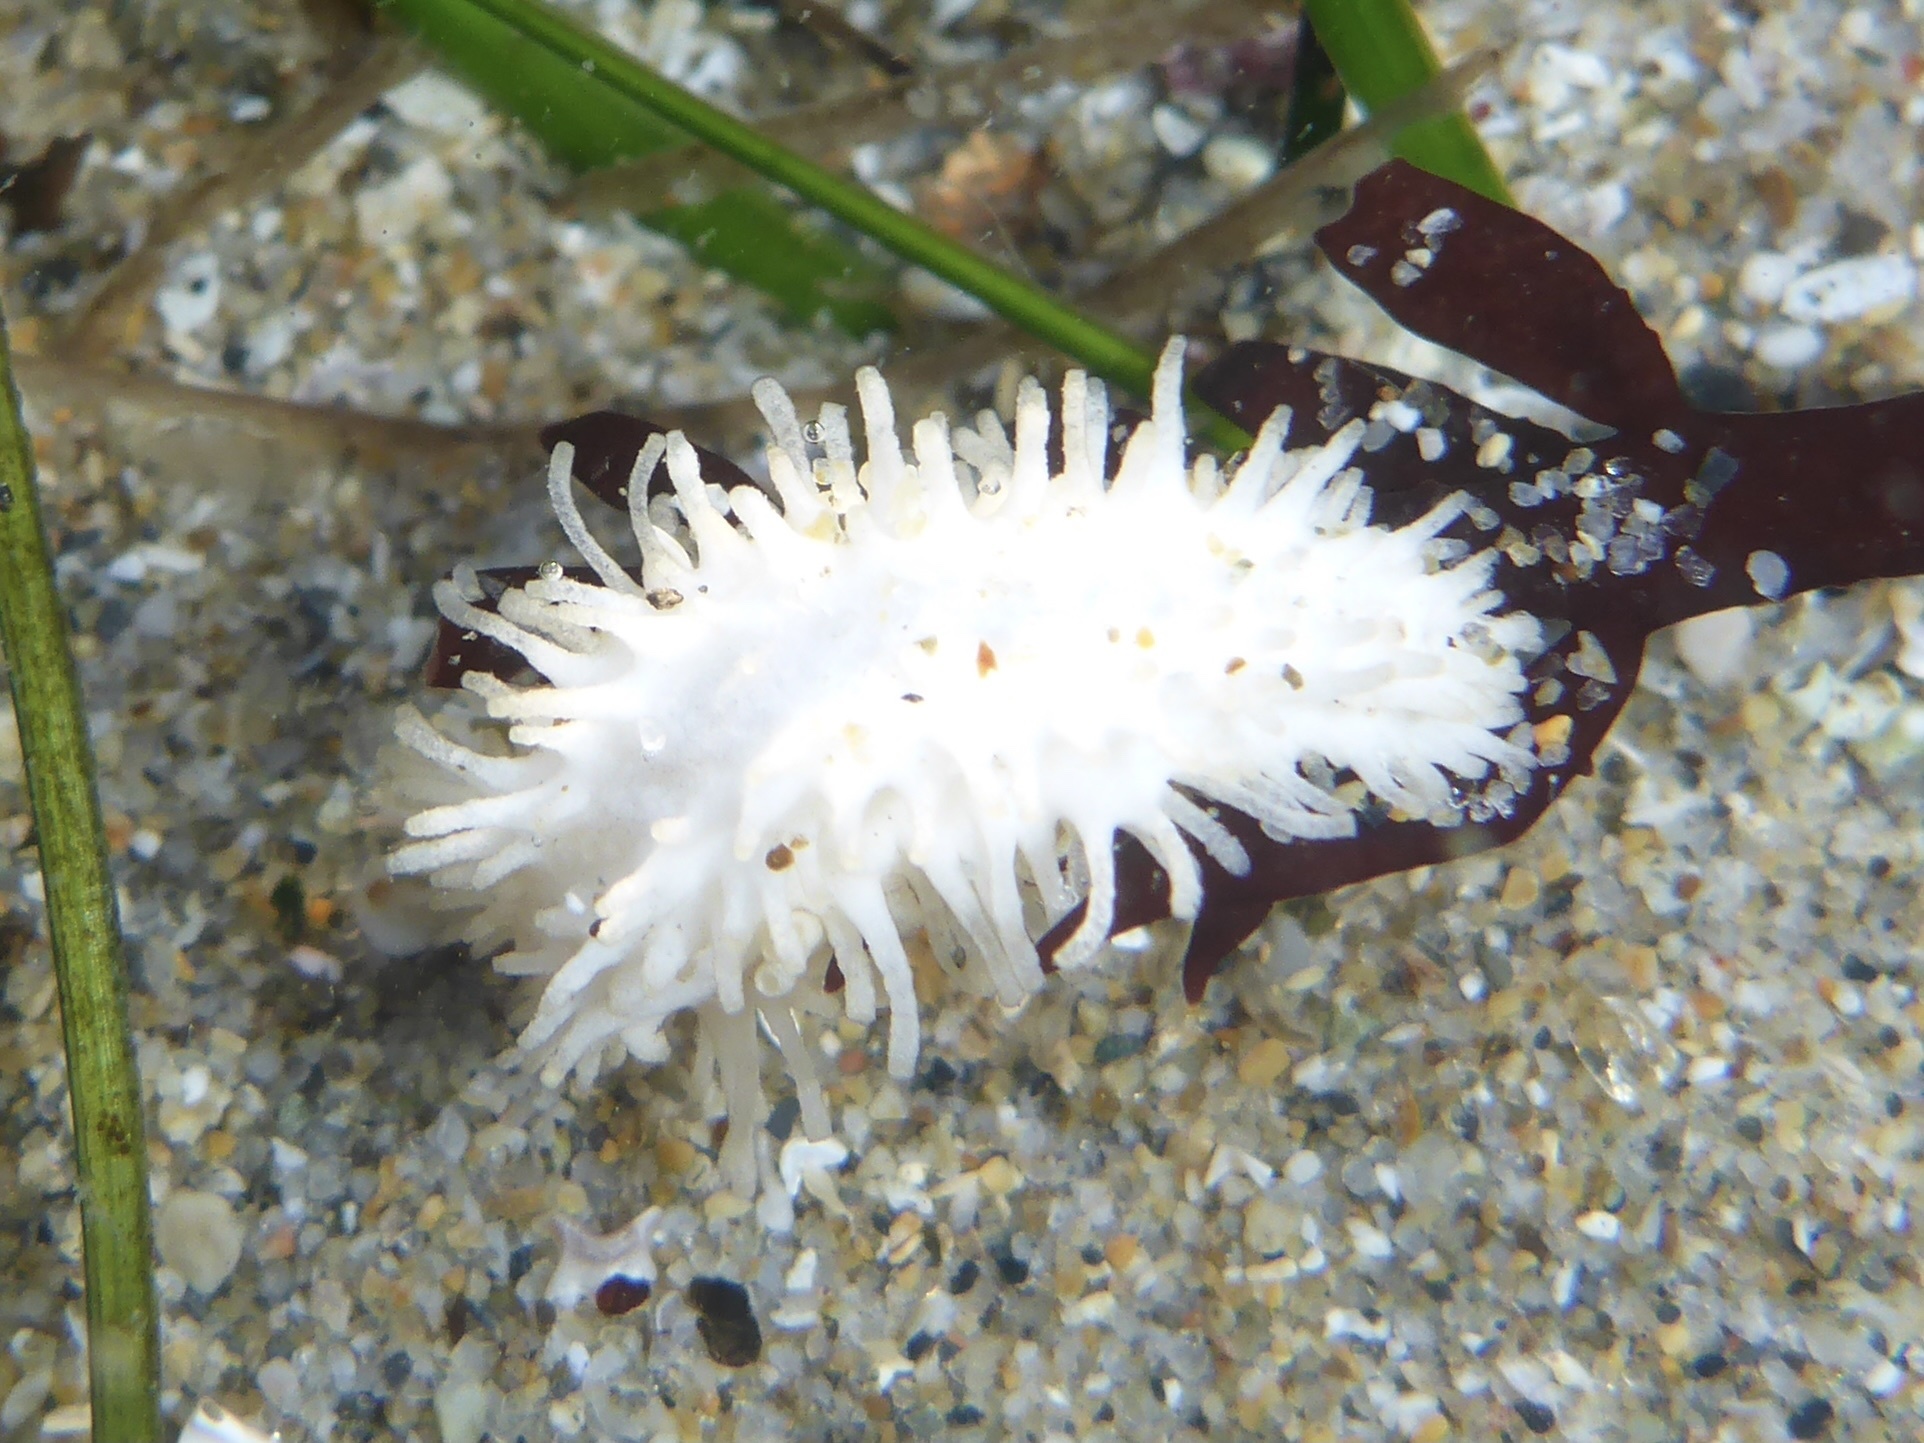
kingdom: Animalia
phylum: Echinodermata
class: Holothuroidea
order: Dendrochirotida
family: Sclerodactylidae
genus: Eupentacta
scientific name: Eupentacta quinquesemita
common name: Pentamerous sea cucumber
